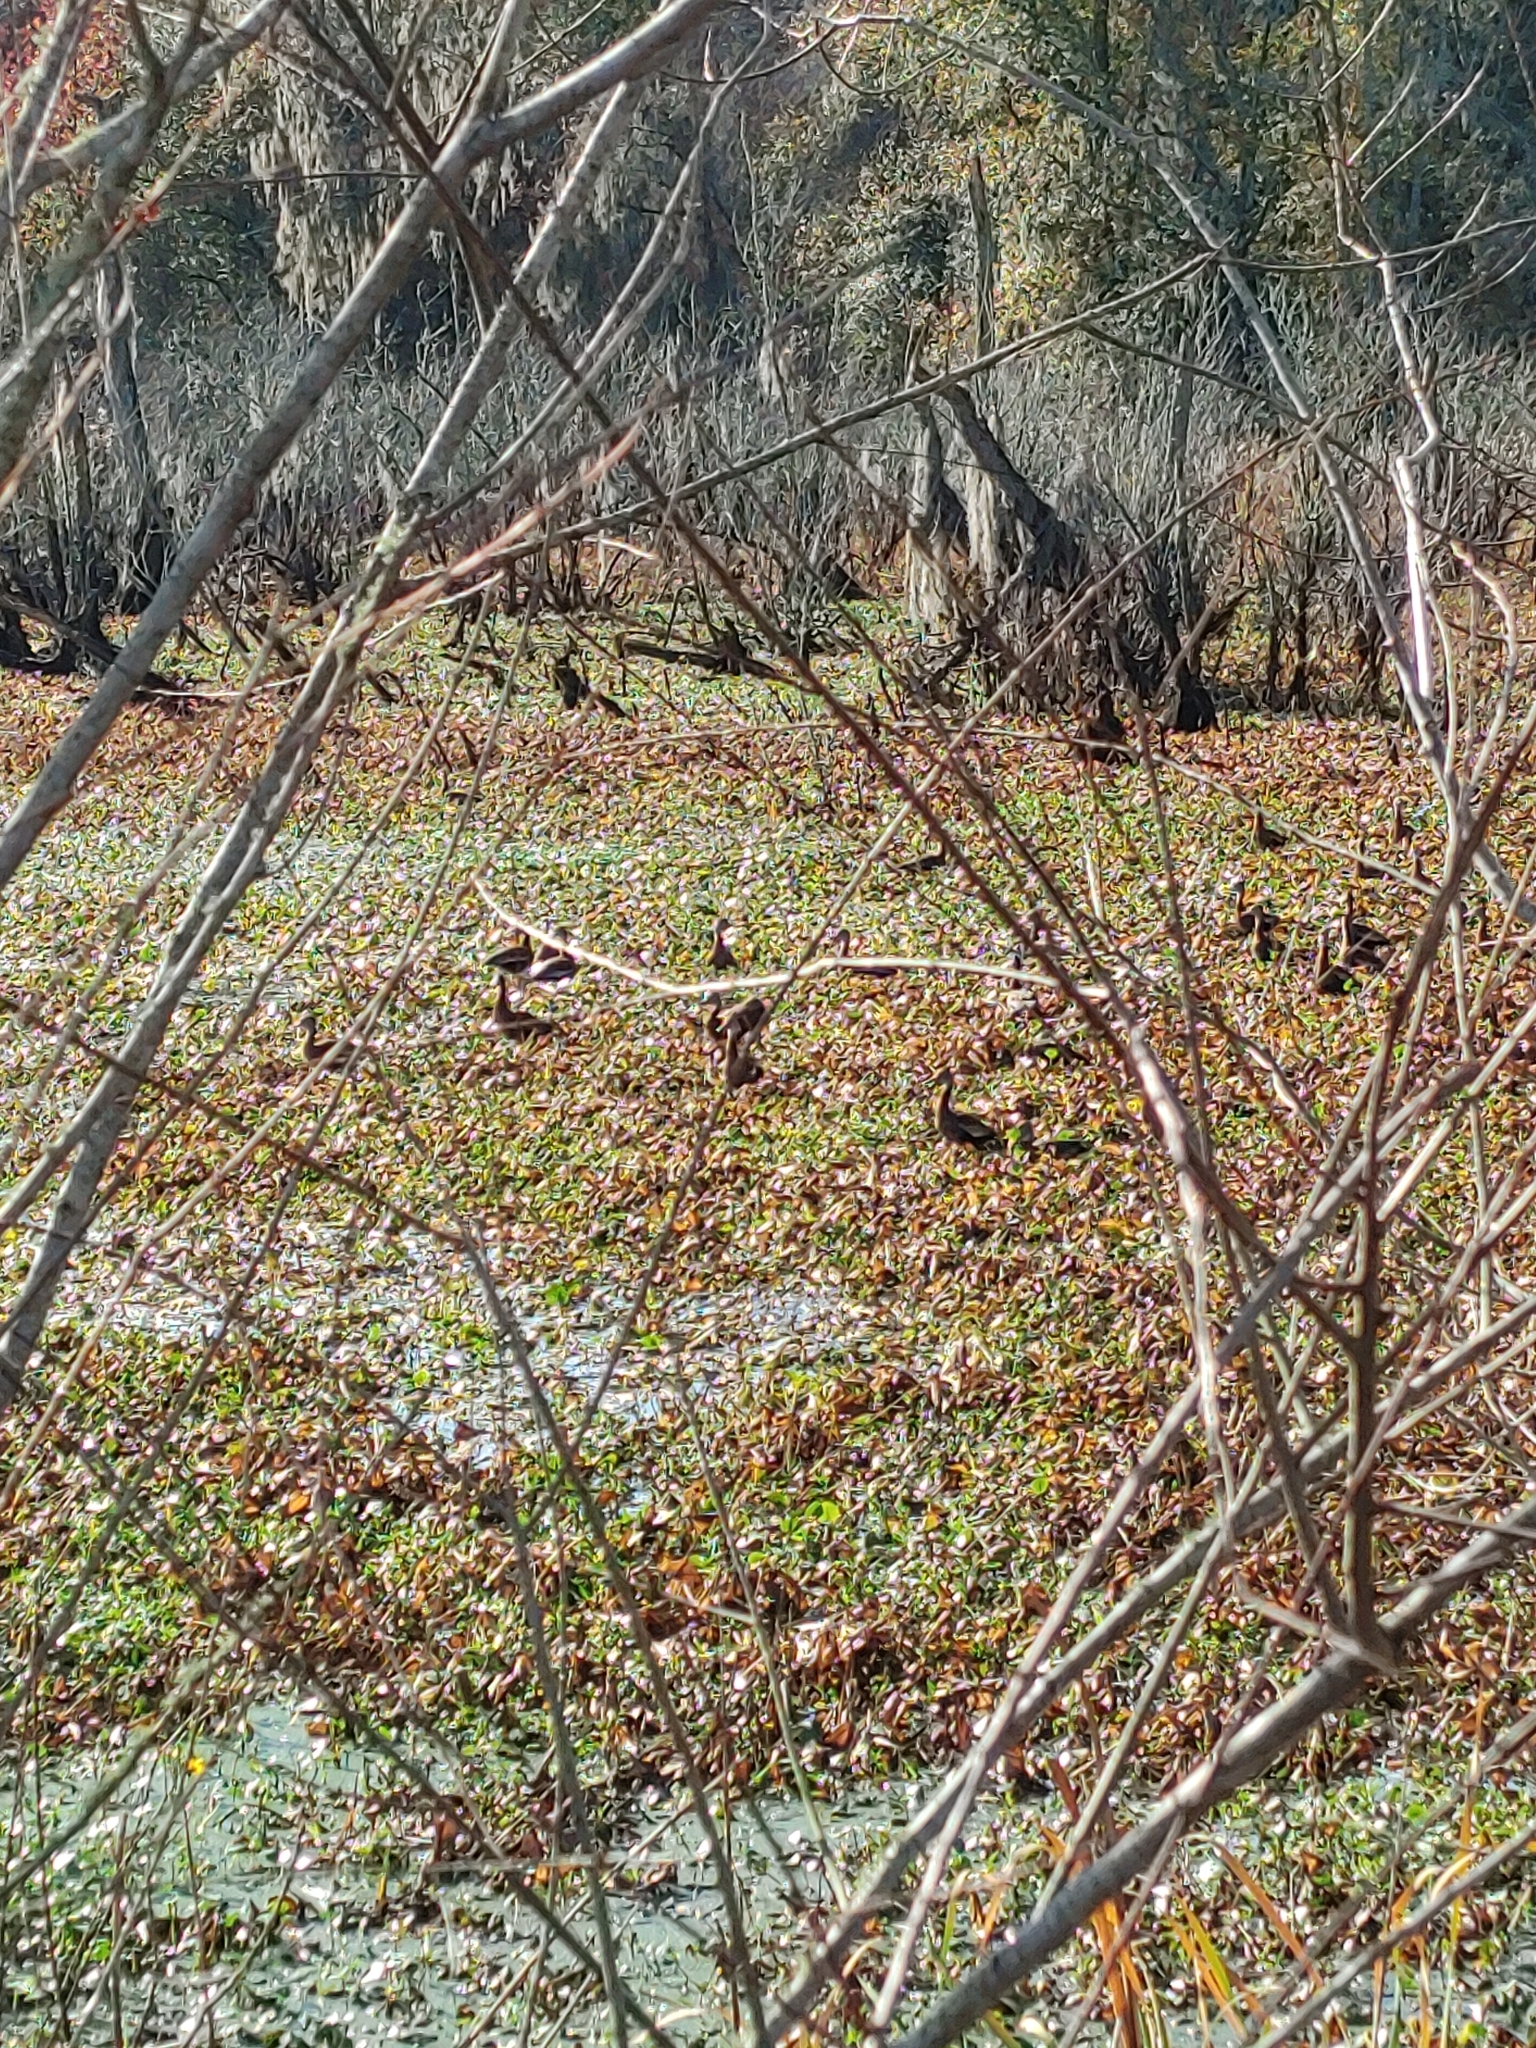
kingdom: Animalia
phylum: Chordata
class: Aves
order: Anseriformes
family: Anatidae
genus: Dendrocygna
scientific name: Dendrocygna autumnalis
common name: Black-bellied whistling duck
